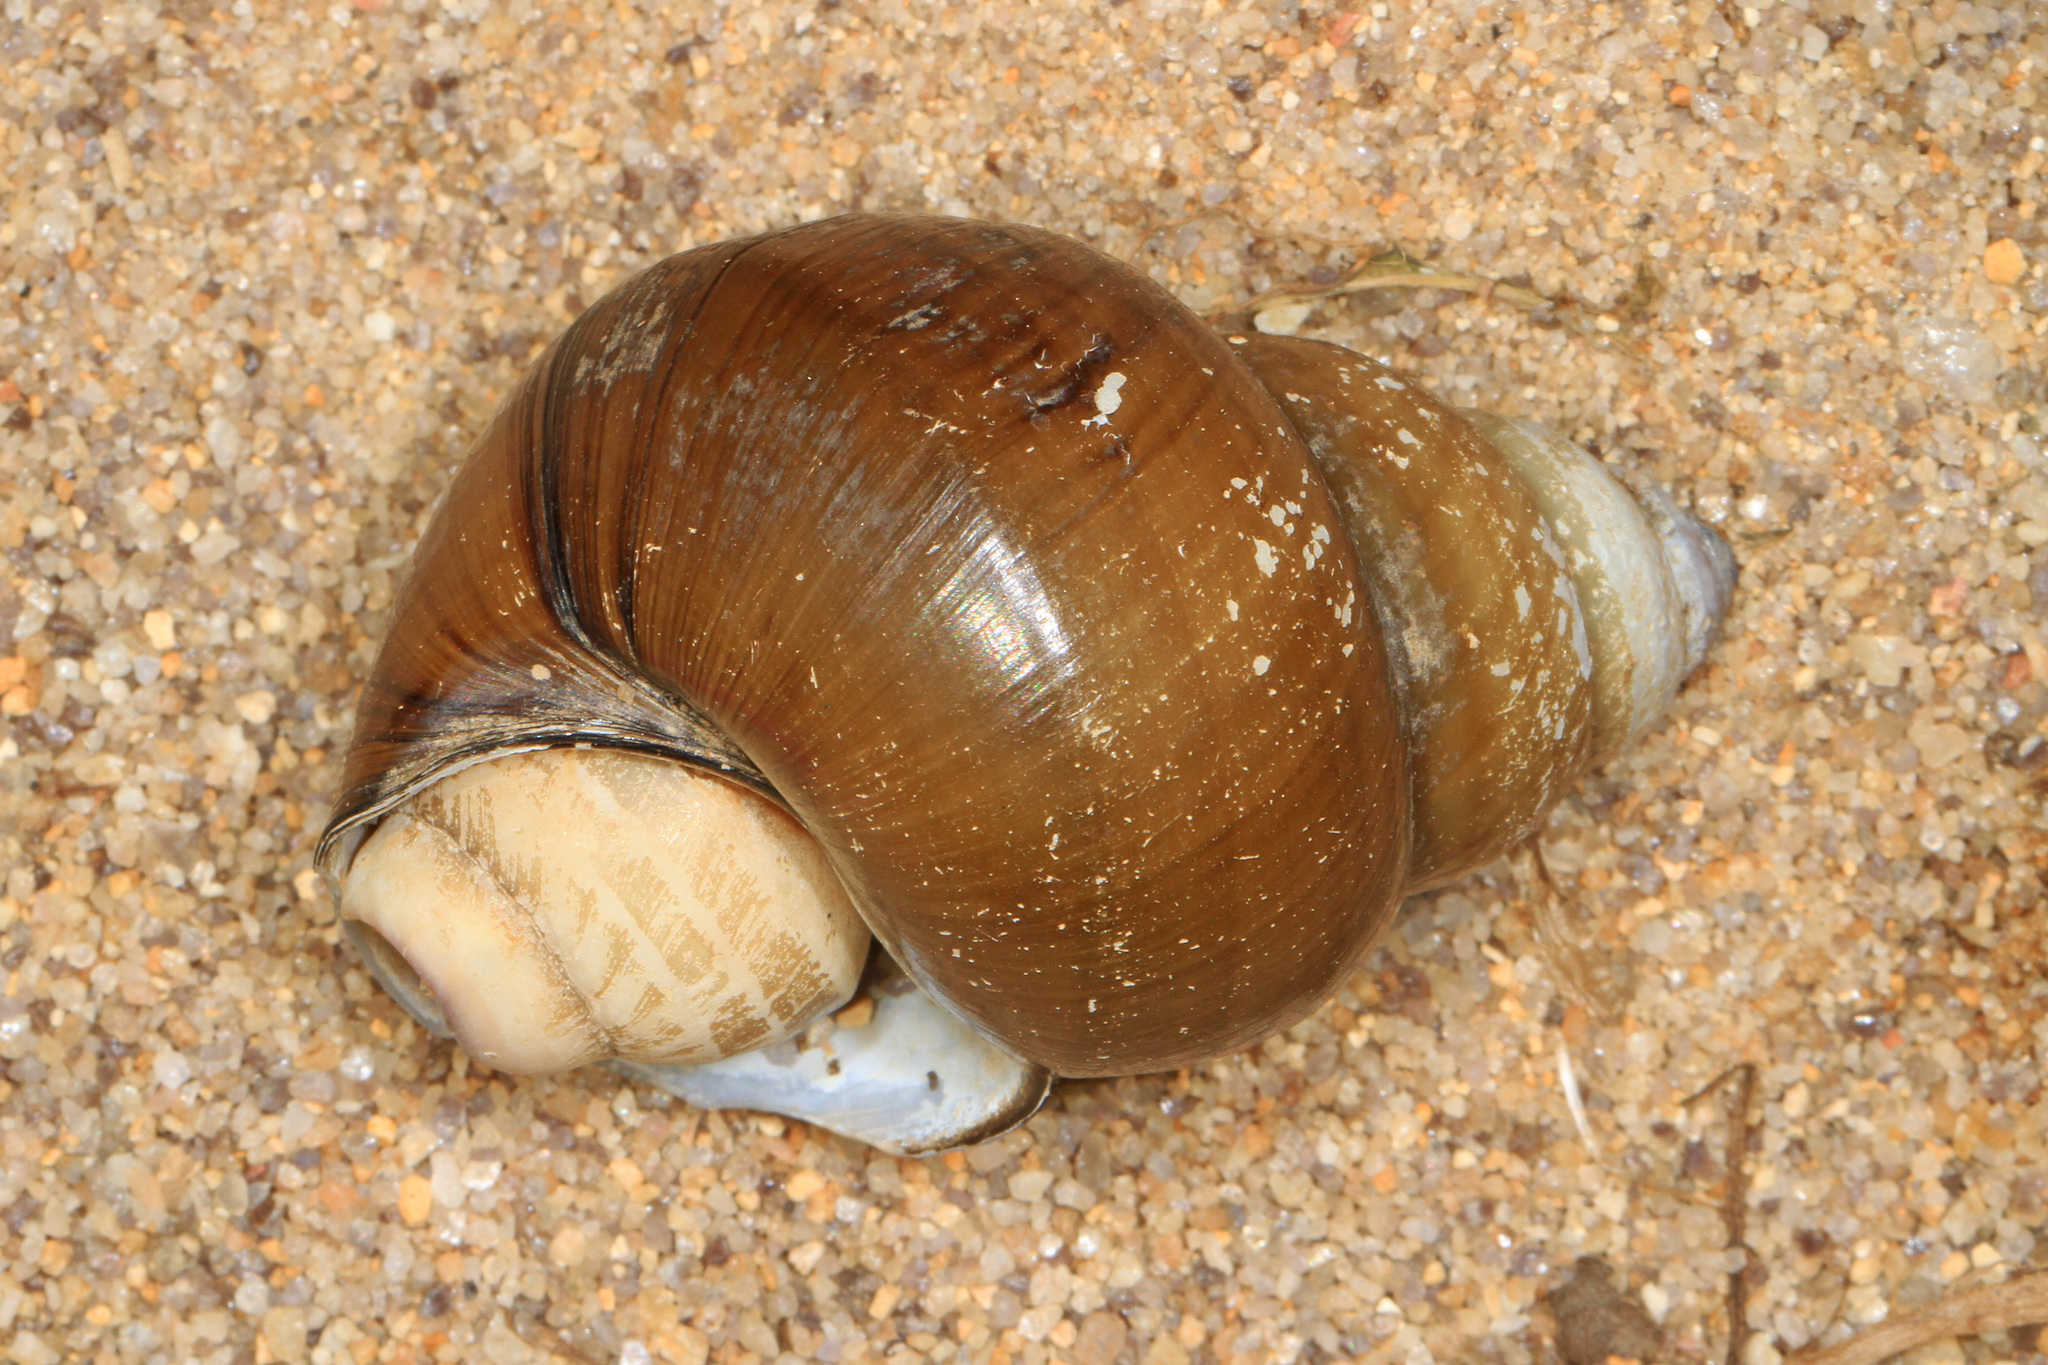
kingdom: Animalia
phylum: Mollusca
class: Gastropoda
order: Architaenioglossa
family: Viviparidae
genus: Cipangopaludina
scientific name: Cipangopaludina japonica
